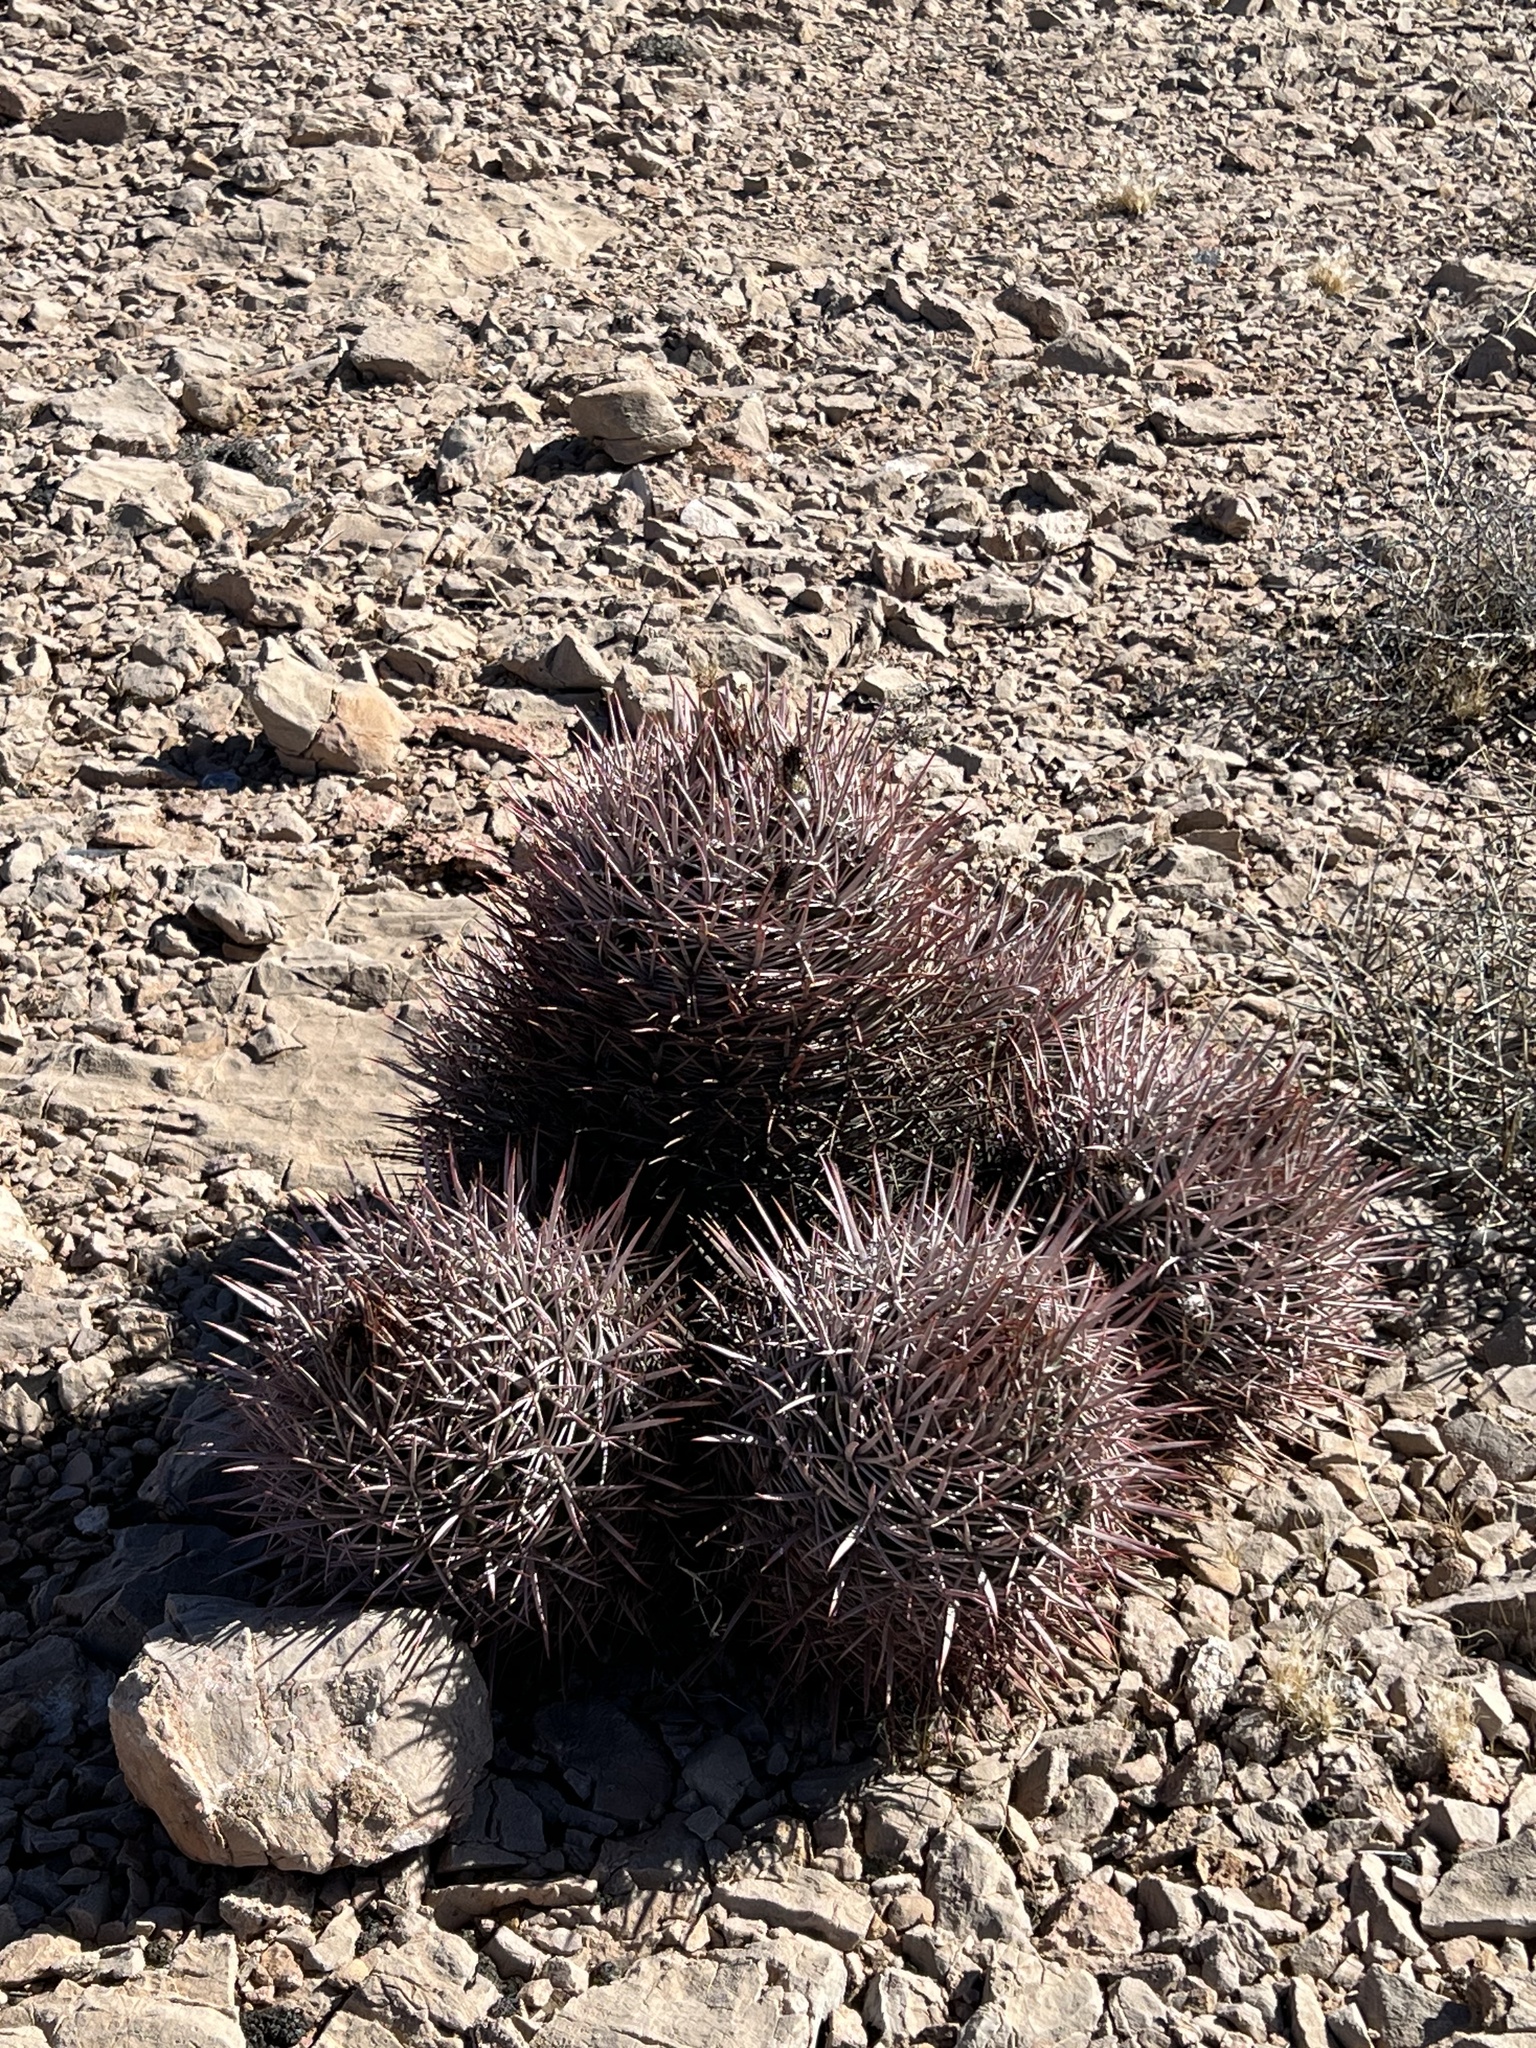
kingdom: Plantae
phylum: Tracheophyta
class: Magnoliopsida
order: Caryophyllales
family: Cactaceae
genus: Echinocactus
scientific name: Echinocactus polycephalus
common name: Cottontop cactus
